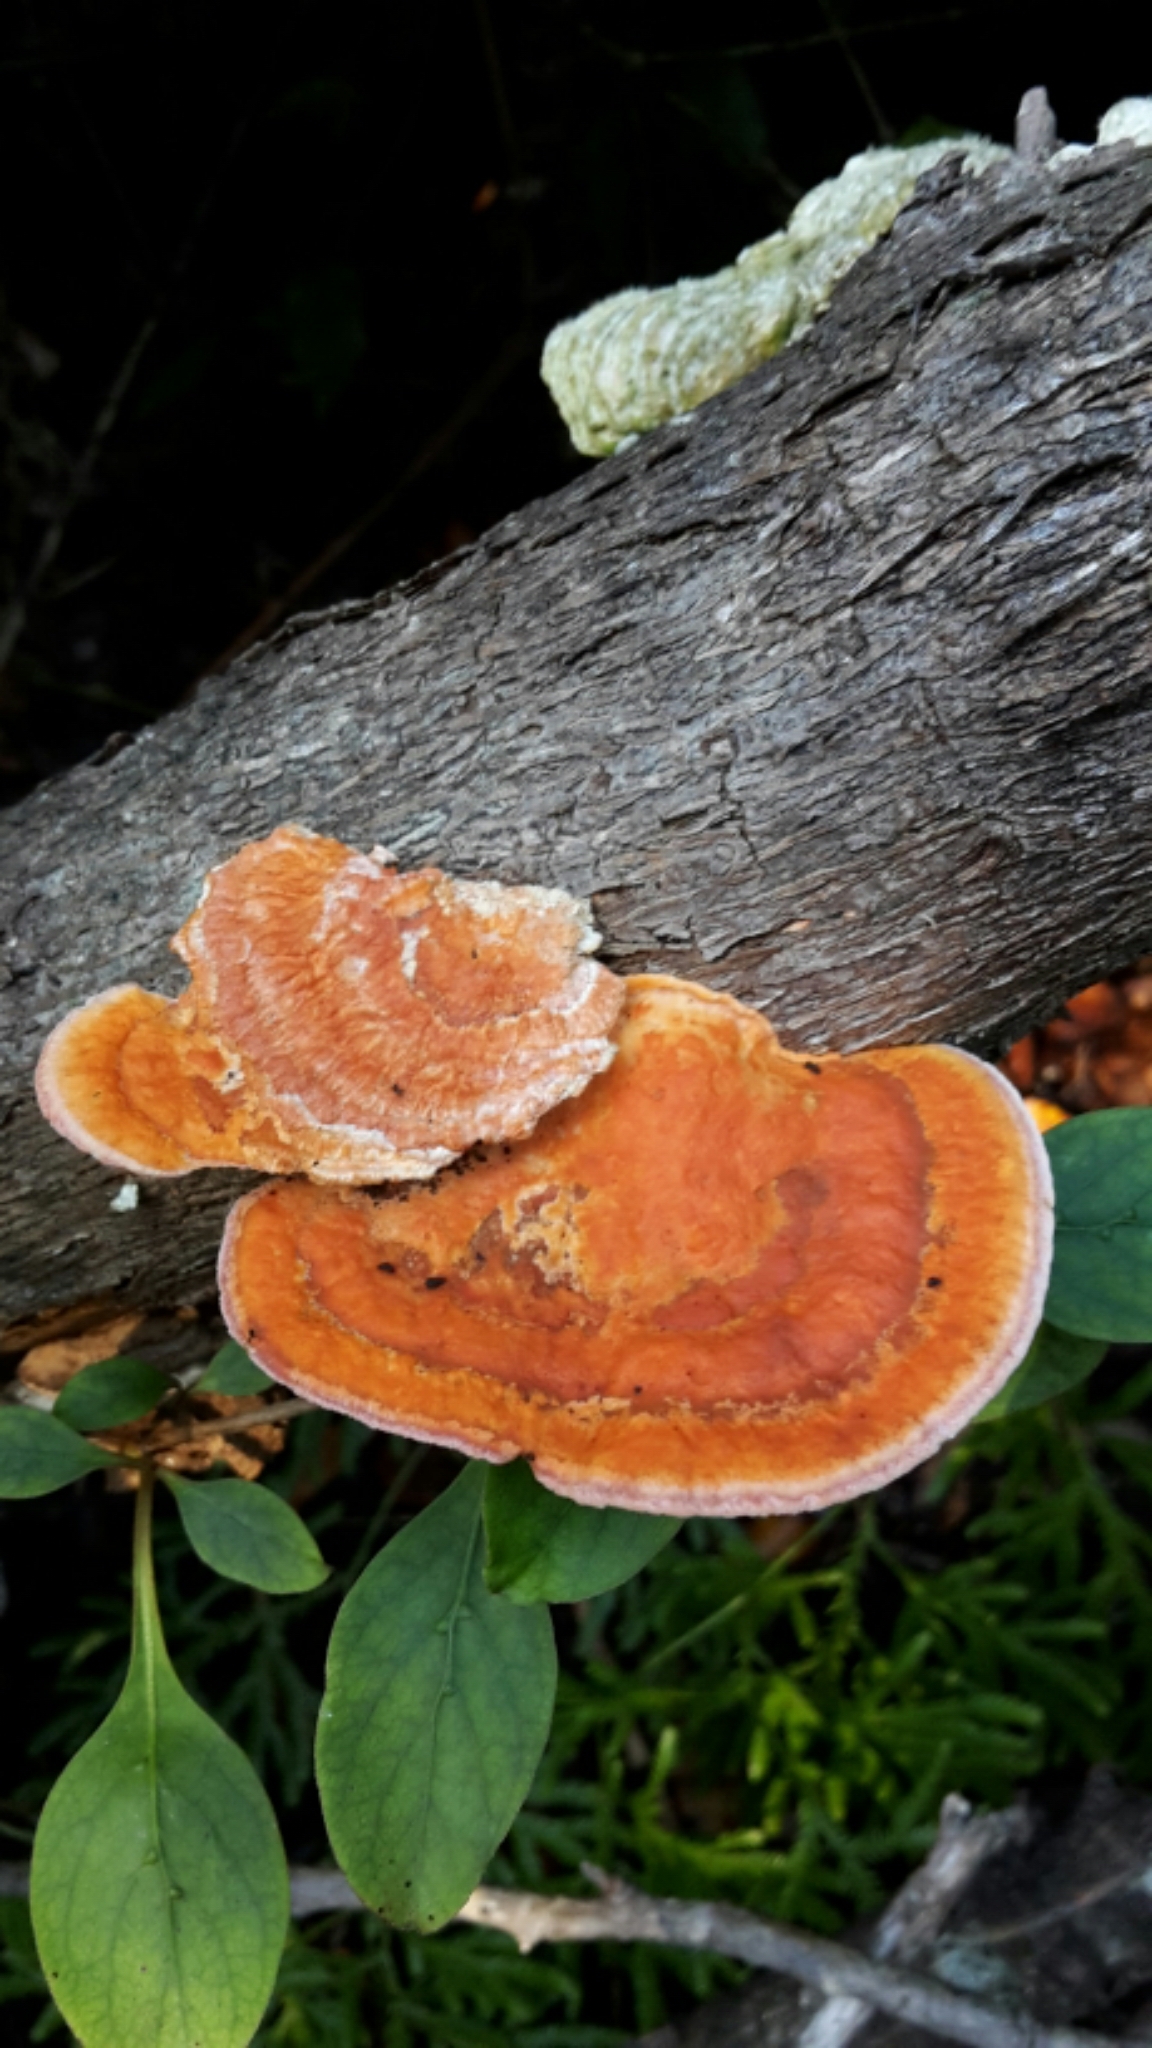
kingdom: Fungi
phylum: Basidiomycota
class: Agaricomycetes
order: Polyporales
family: Polyporaceae
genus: Trametes
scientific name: Trametes coccinea
